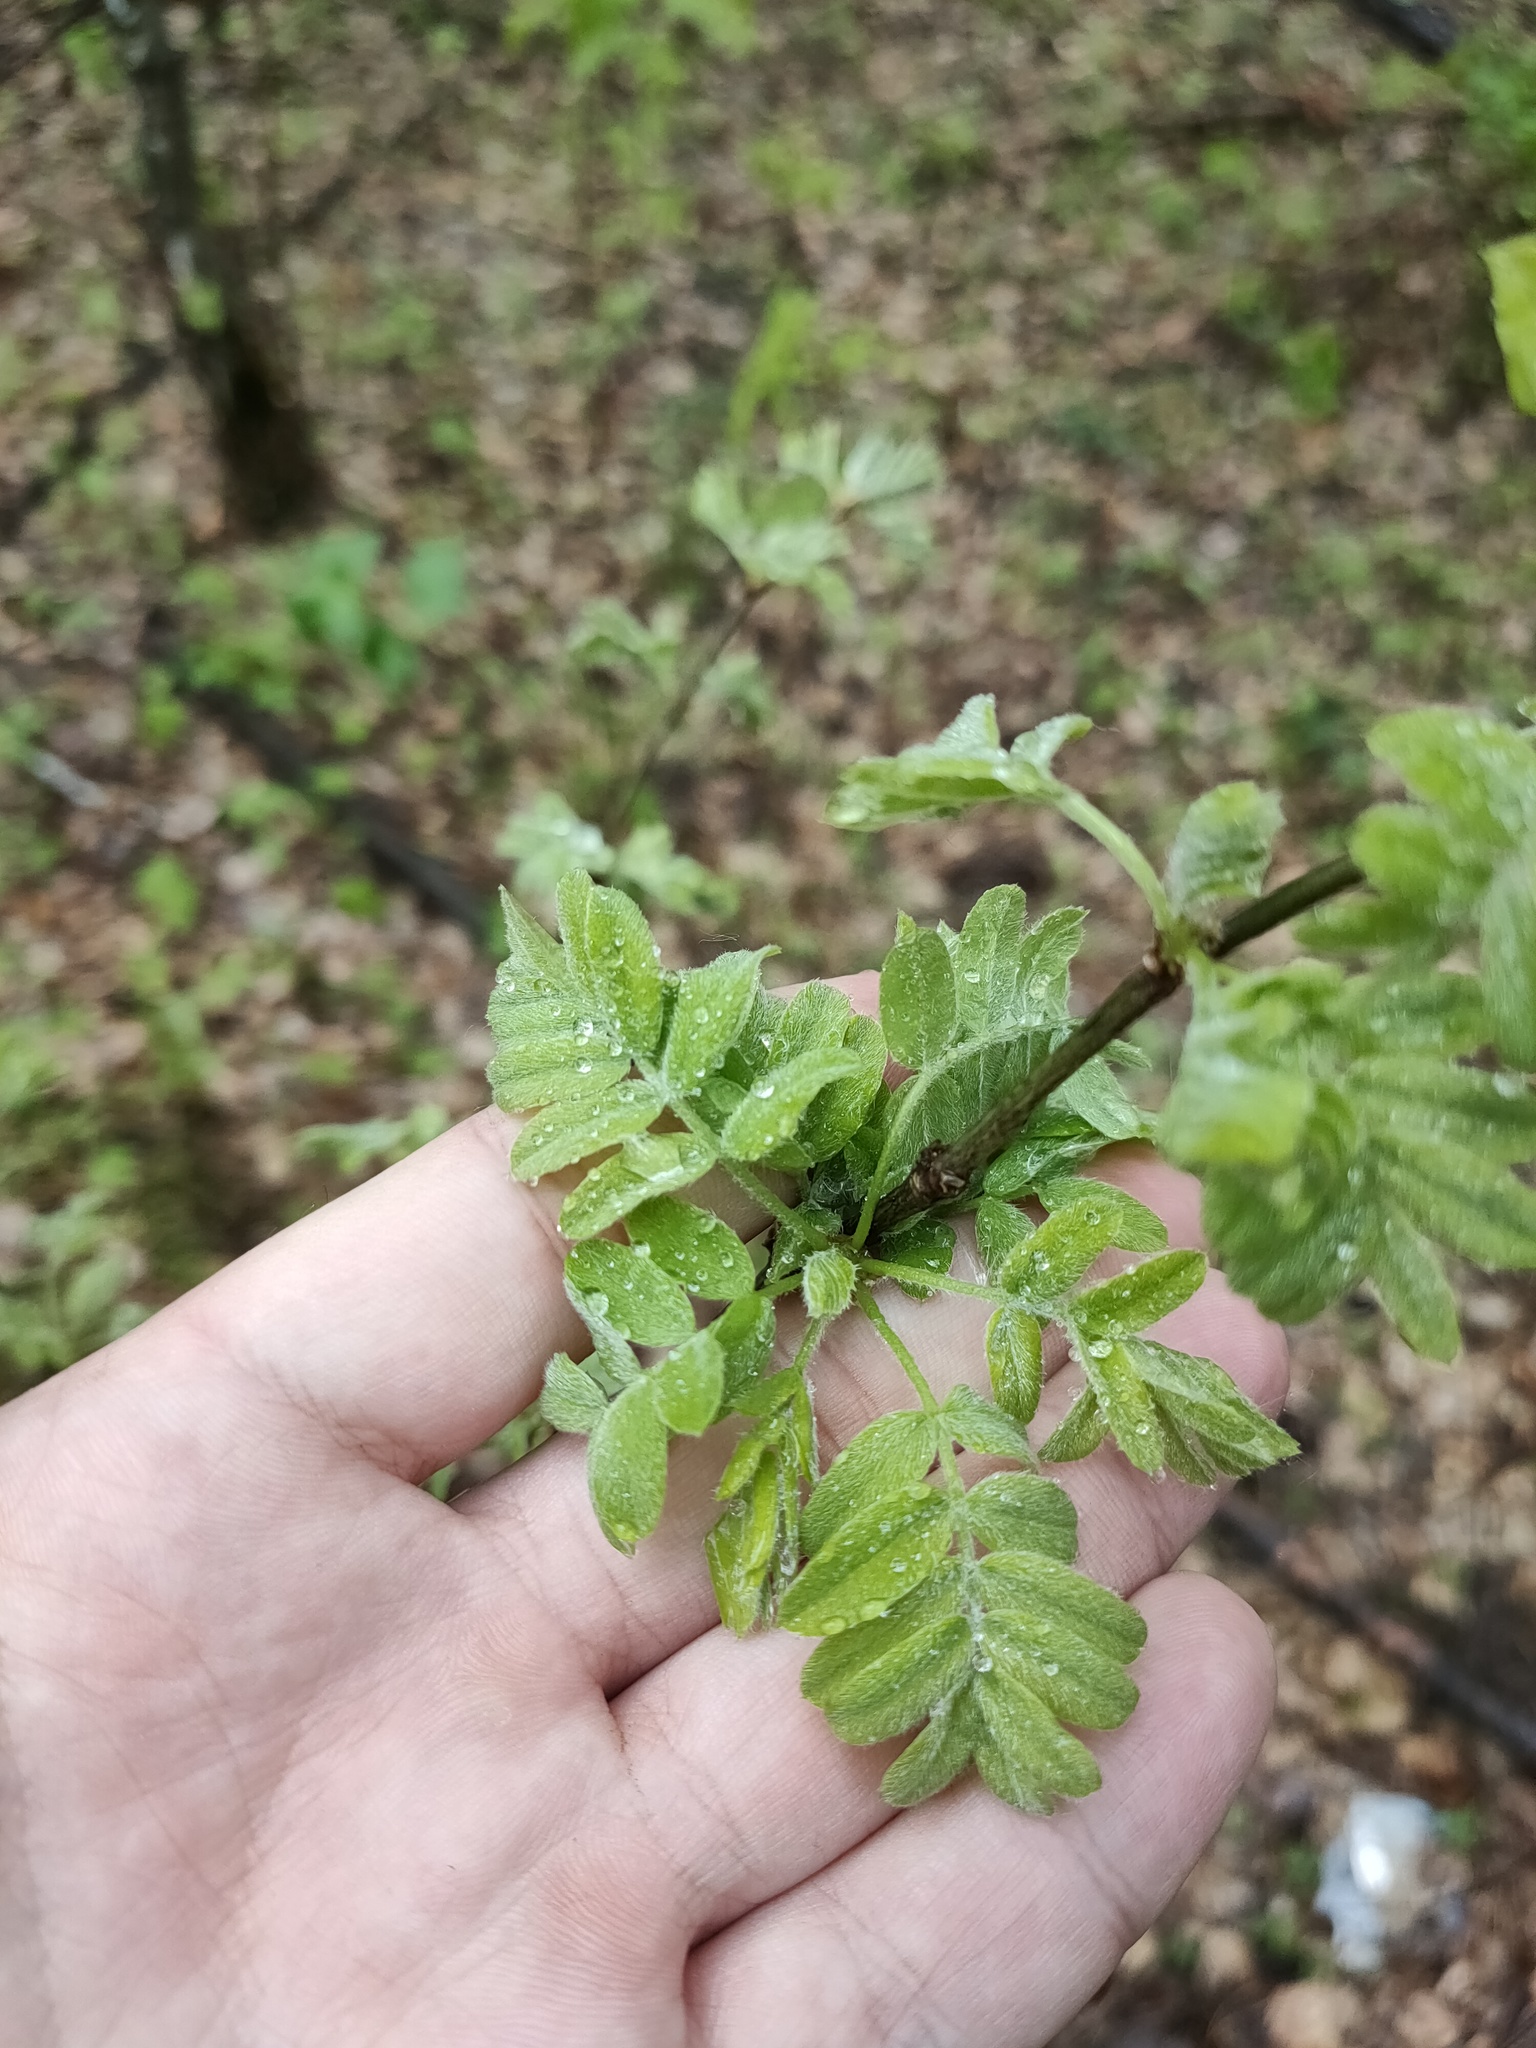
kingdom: Plantae
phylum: Tracheophyta
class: Magnoliopsida
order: Fabales
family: Fabaceae
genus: Caragana
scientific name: Caragana arborescens
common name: Siberian peashrub
